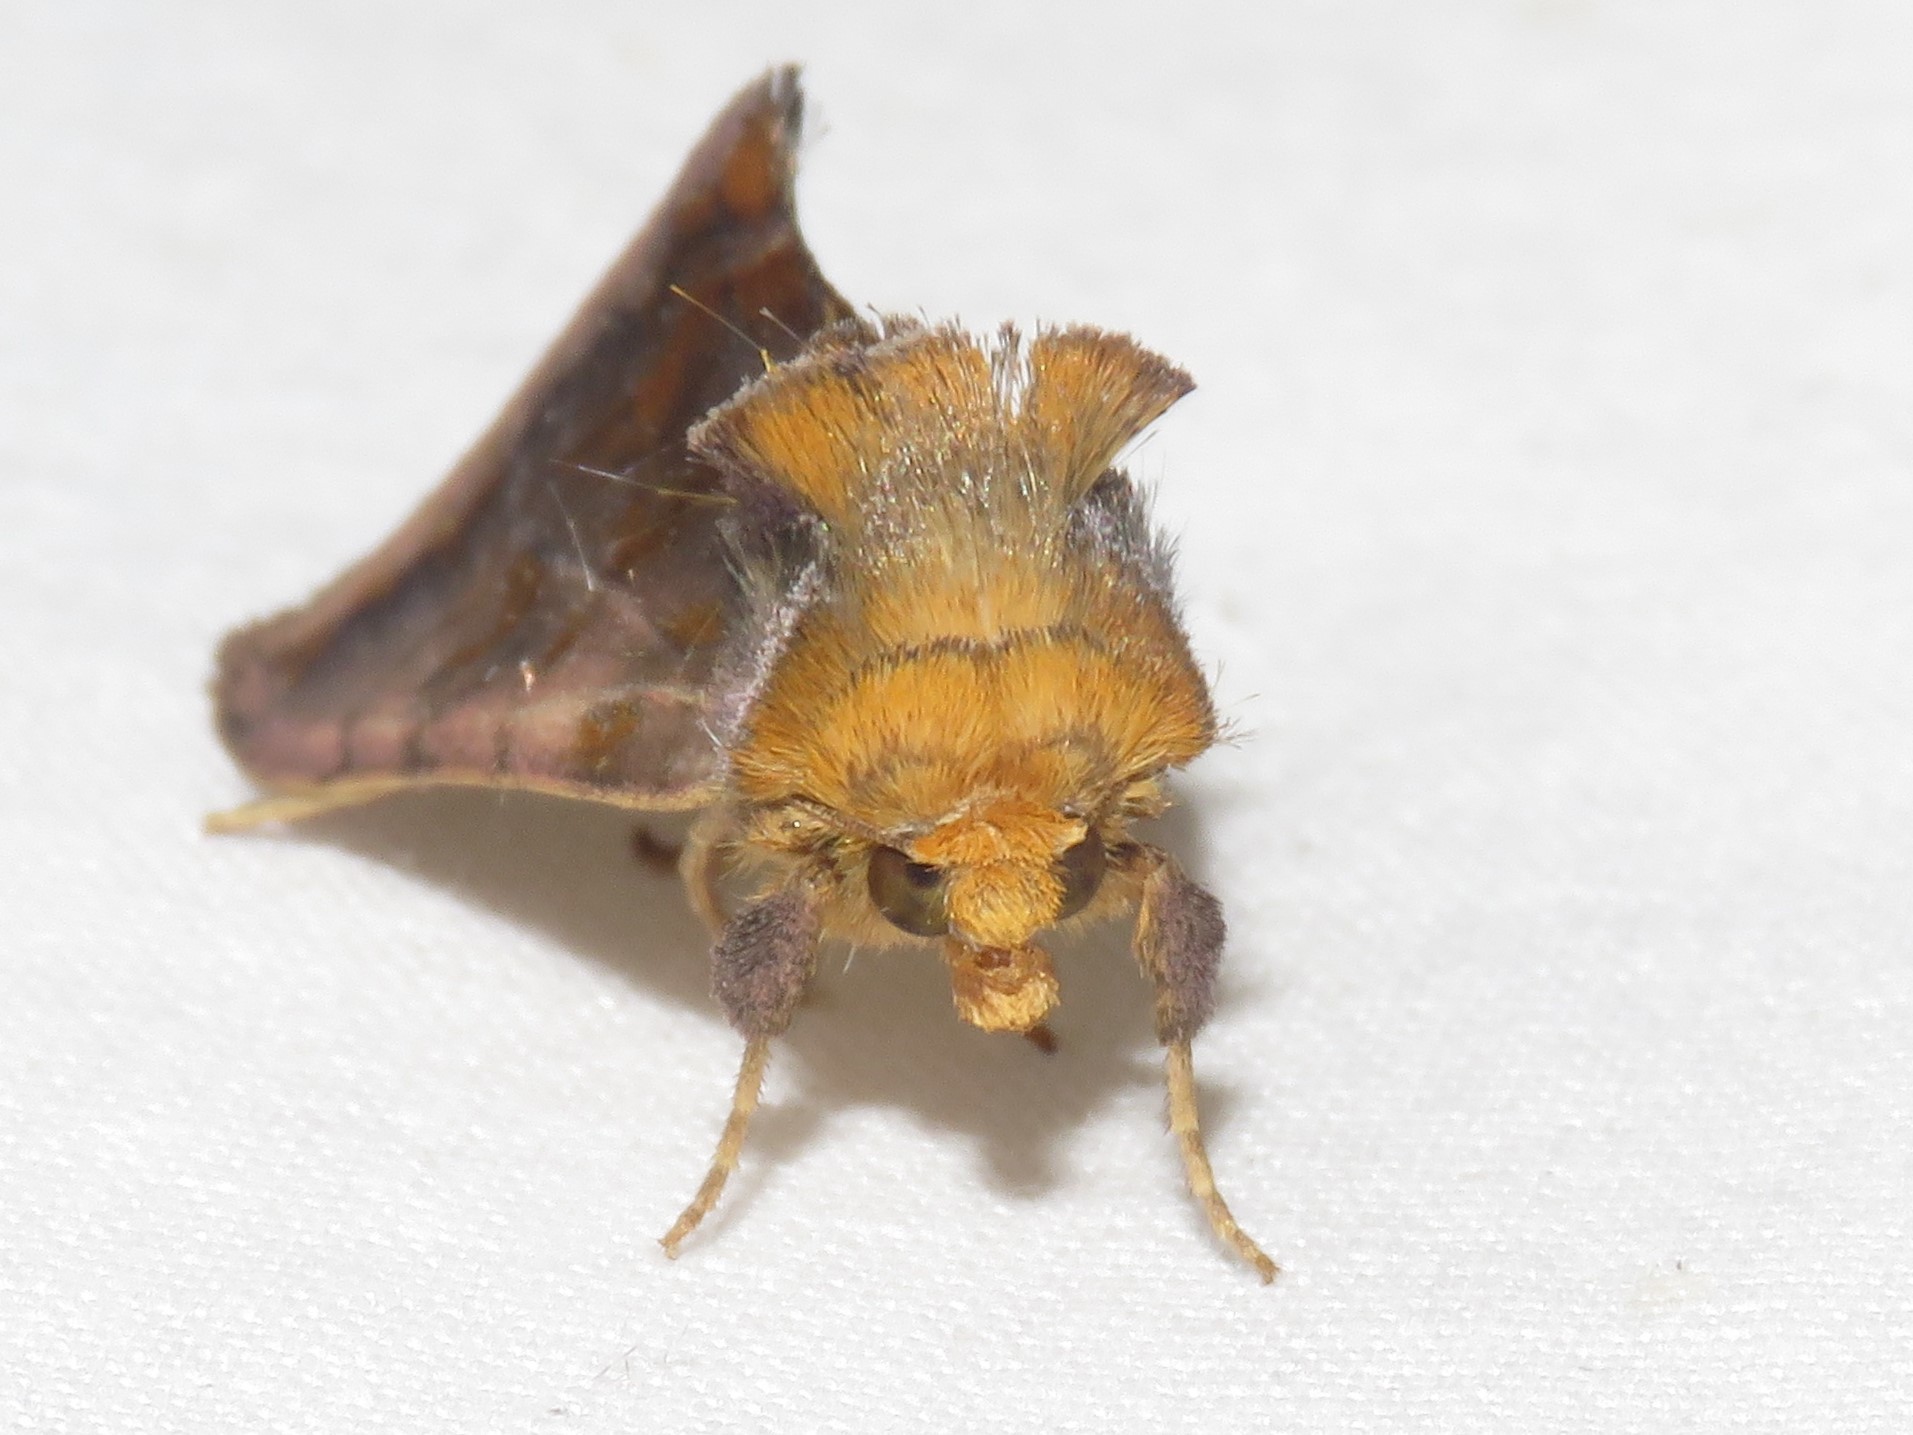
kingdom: Animalia
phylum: Arthropoda
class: Insecta
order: Lepidoptera
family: Noctuidae
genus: Allagrapha
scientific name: Allagrapha aerea
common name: Unspotted looper moth
